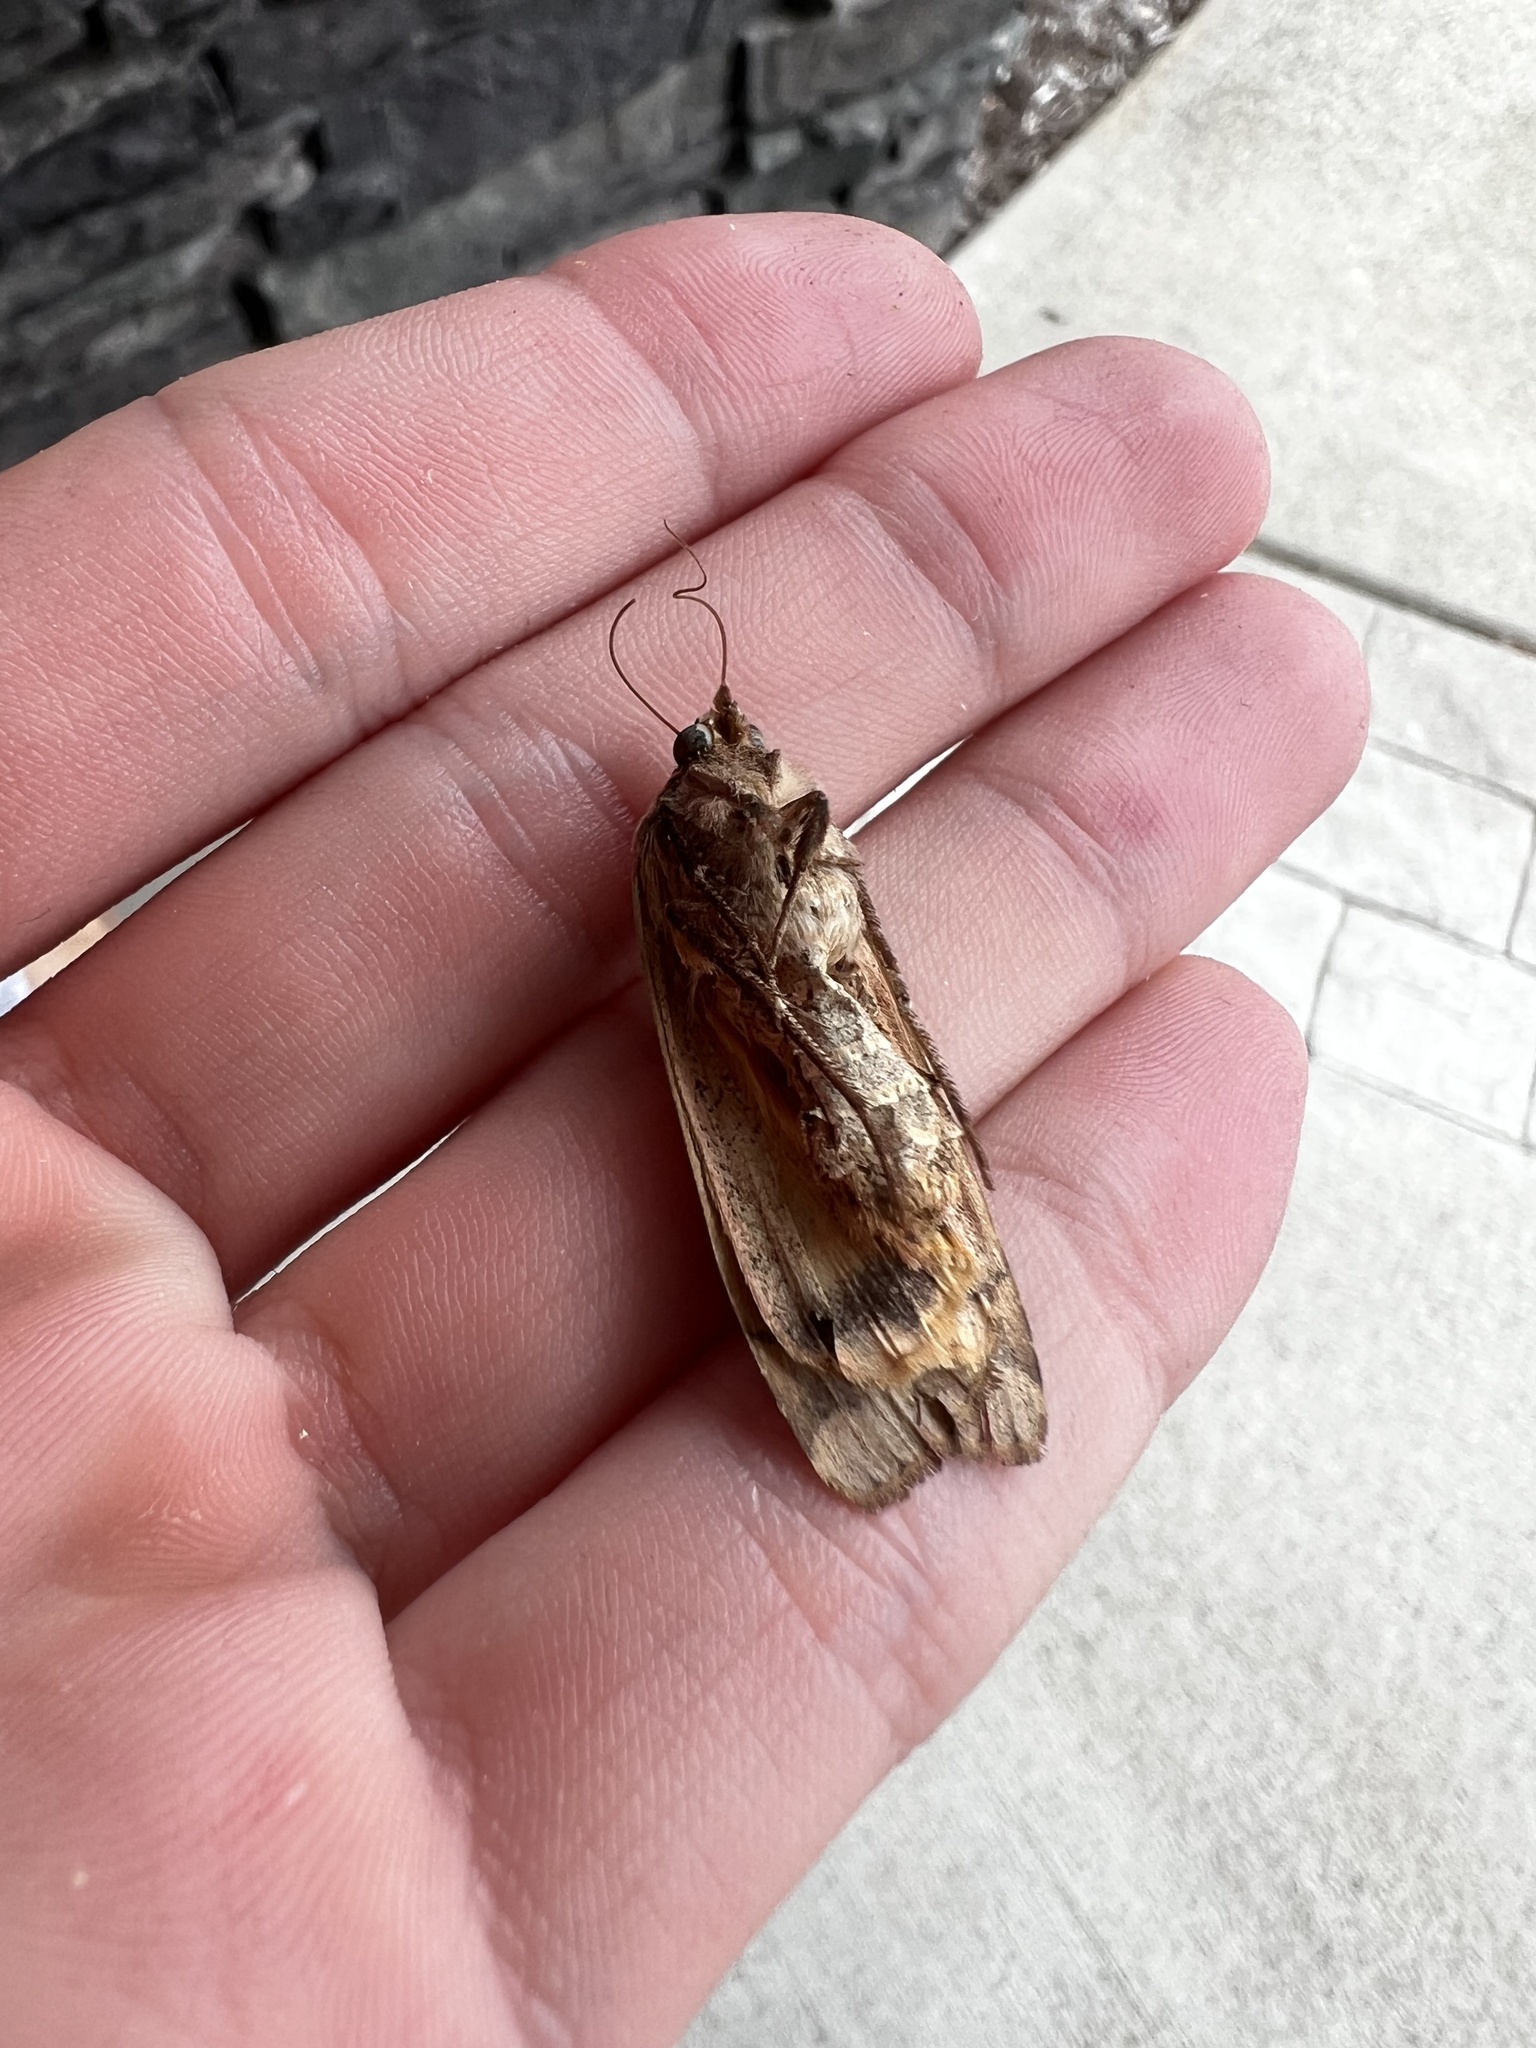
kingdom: Animalia
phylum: Arthropoda
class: Insecta
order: Lepidoptera
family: Noctuidae
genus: Noctua
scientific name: Noctua pronuba
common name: Large yellow underwing
